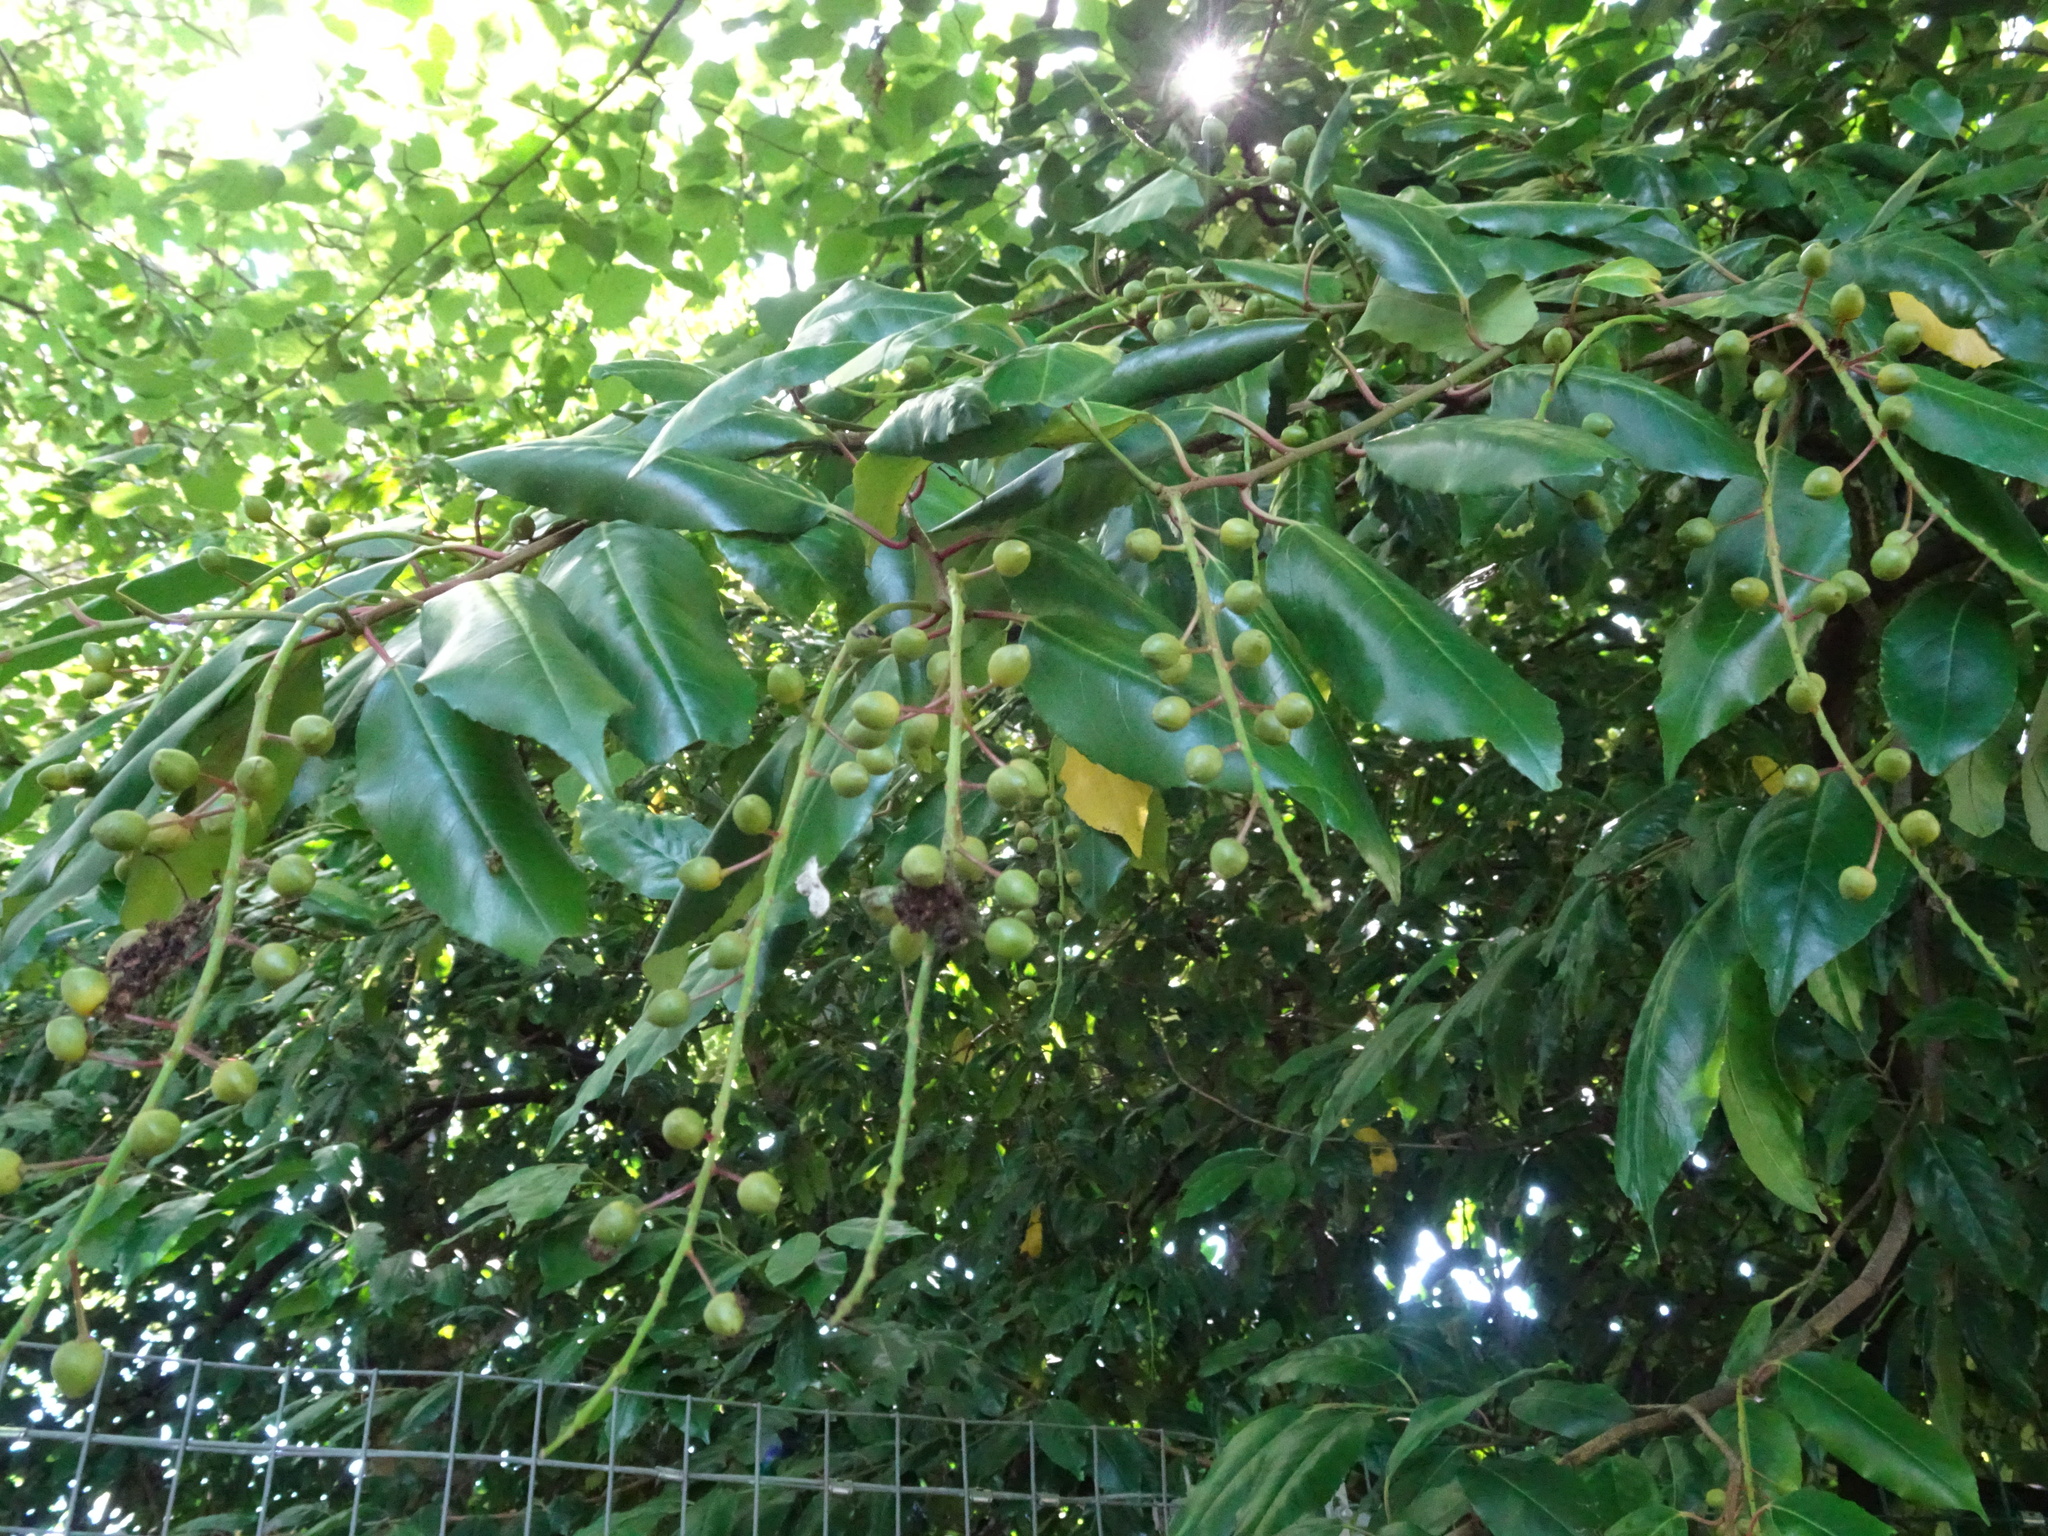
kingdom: Plantae
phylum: Tracheophyta
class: Magnoliopsida
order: Rosales
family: Rosaceae
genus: Prunus
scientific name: Prunus lusitanica
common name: Portugal laurel
